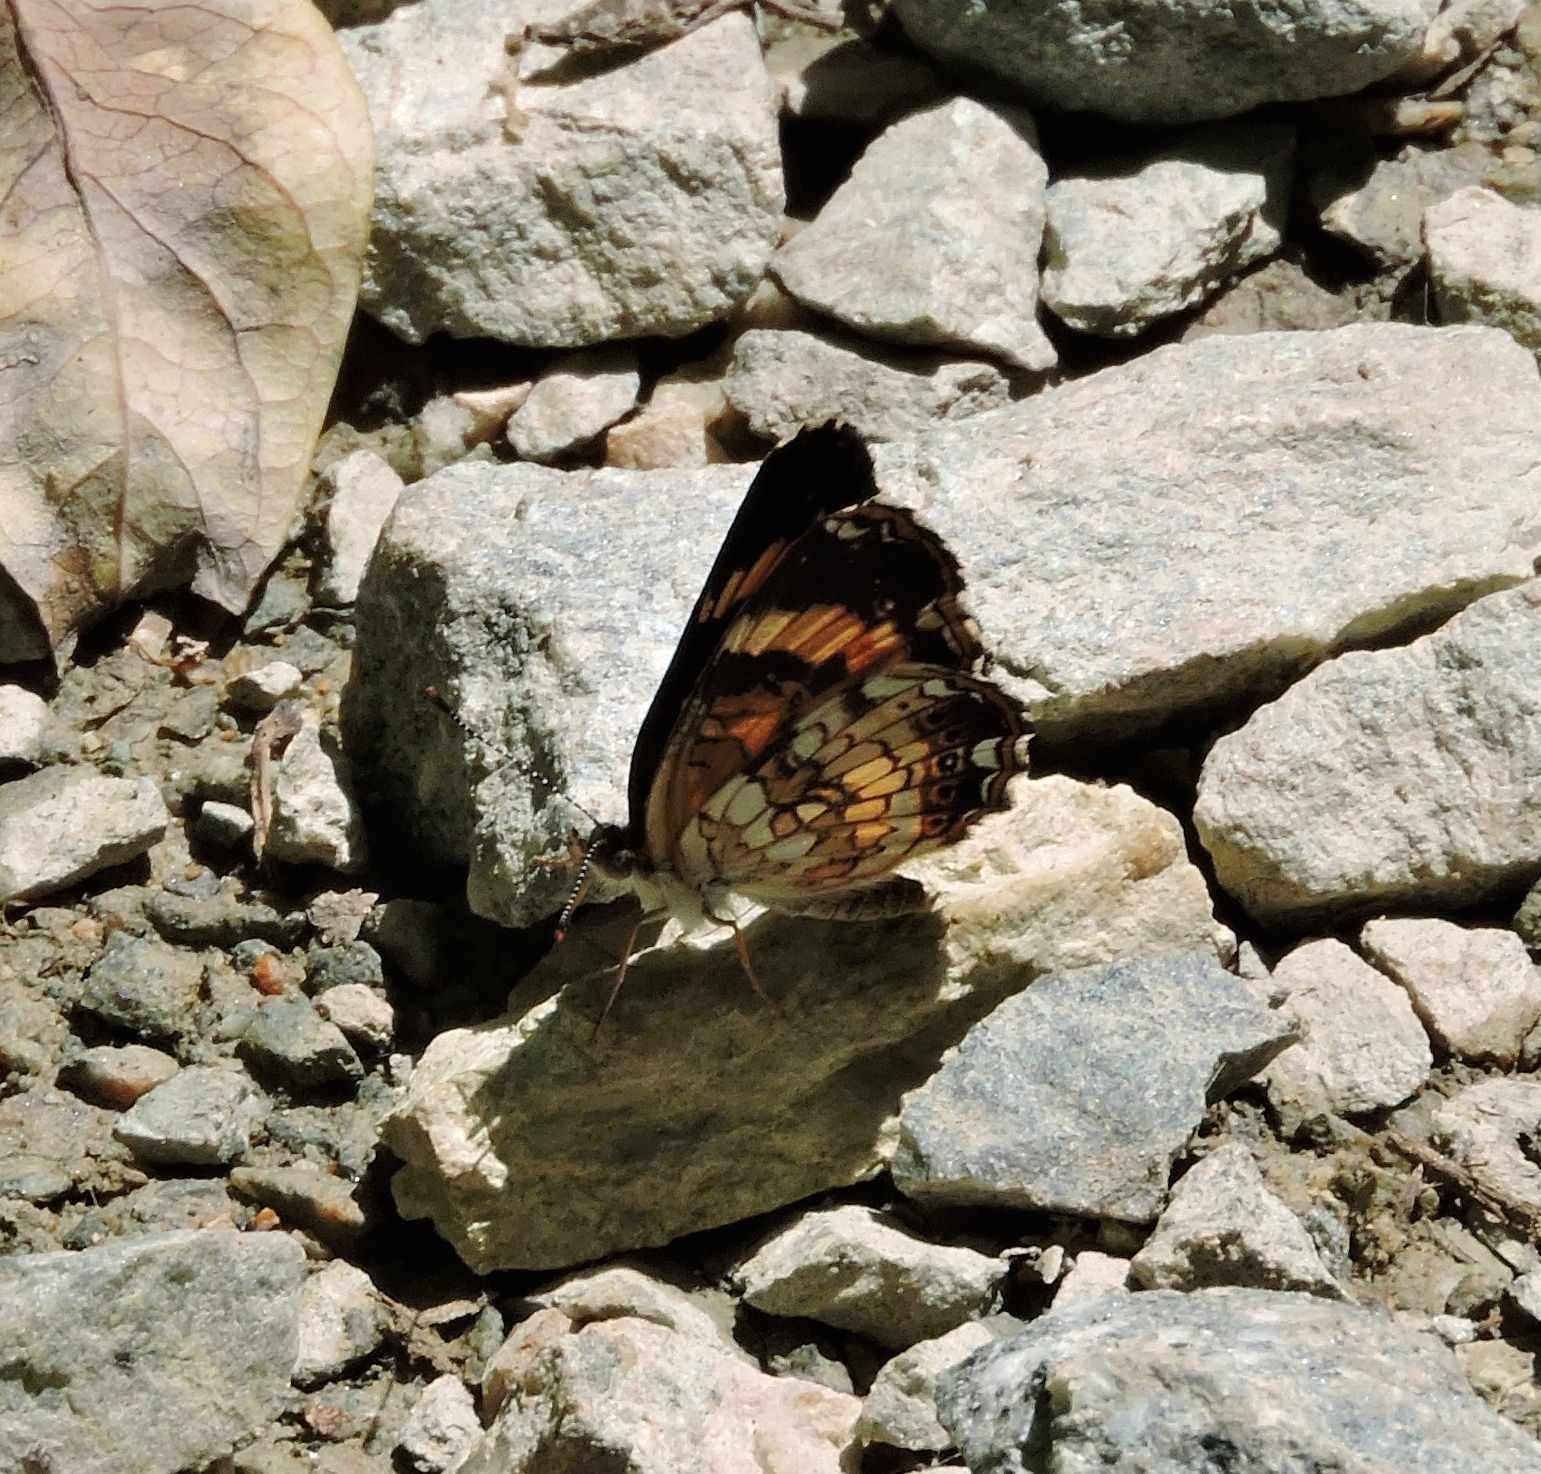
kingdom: Animalia
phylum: Arthropoda
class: Insecta
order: Lepidoptera
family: Nymphalidae
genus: Chlosyne
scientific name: Chlosyne nycteis
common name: Silvery checkerspot
